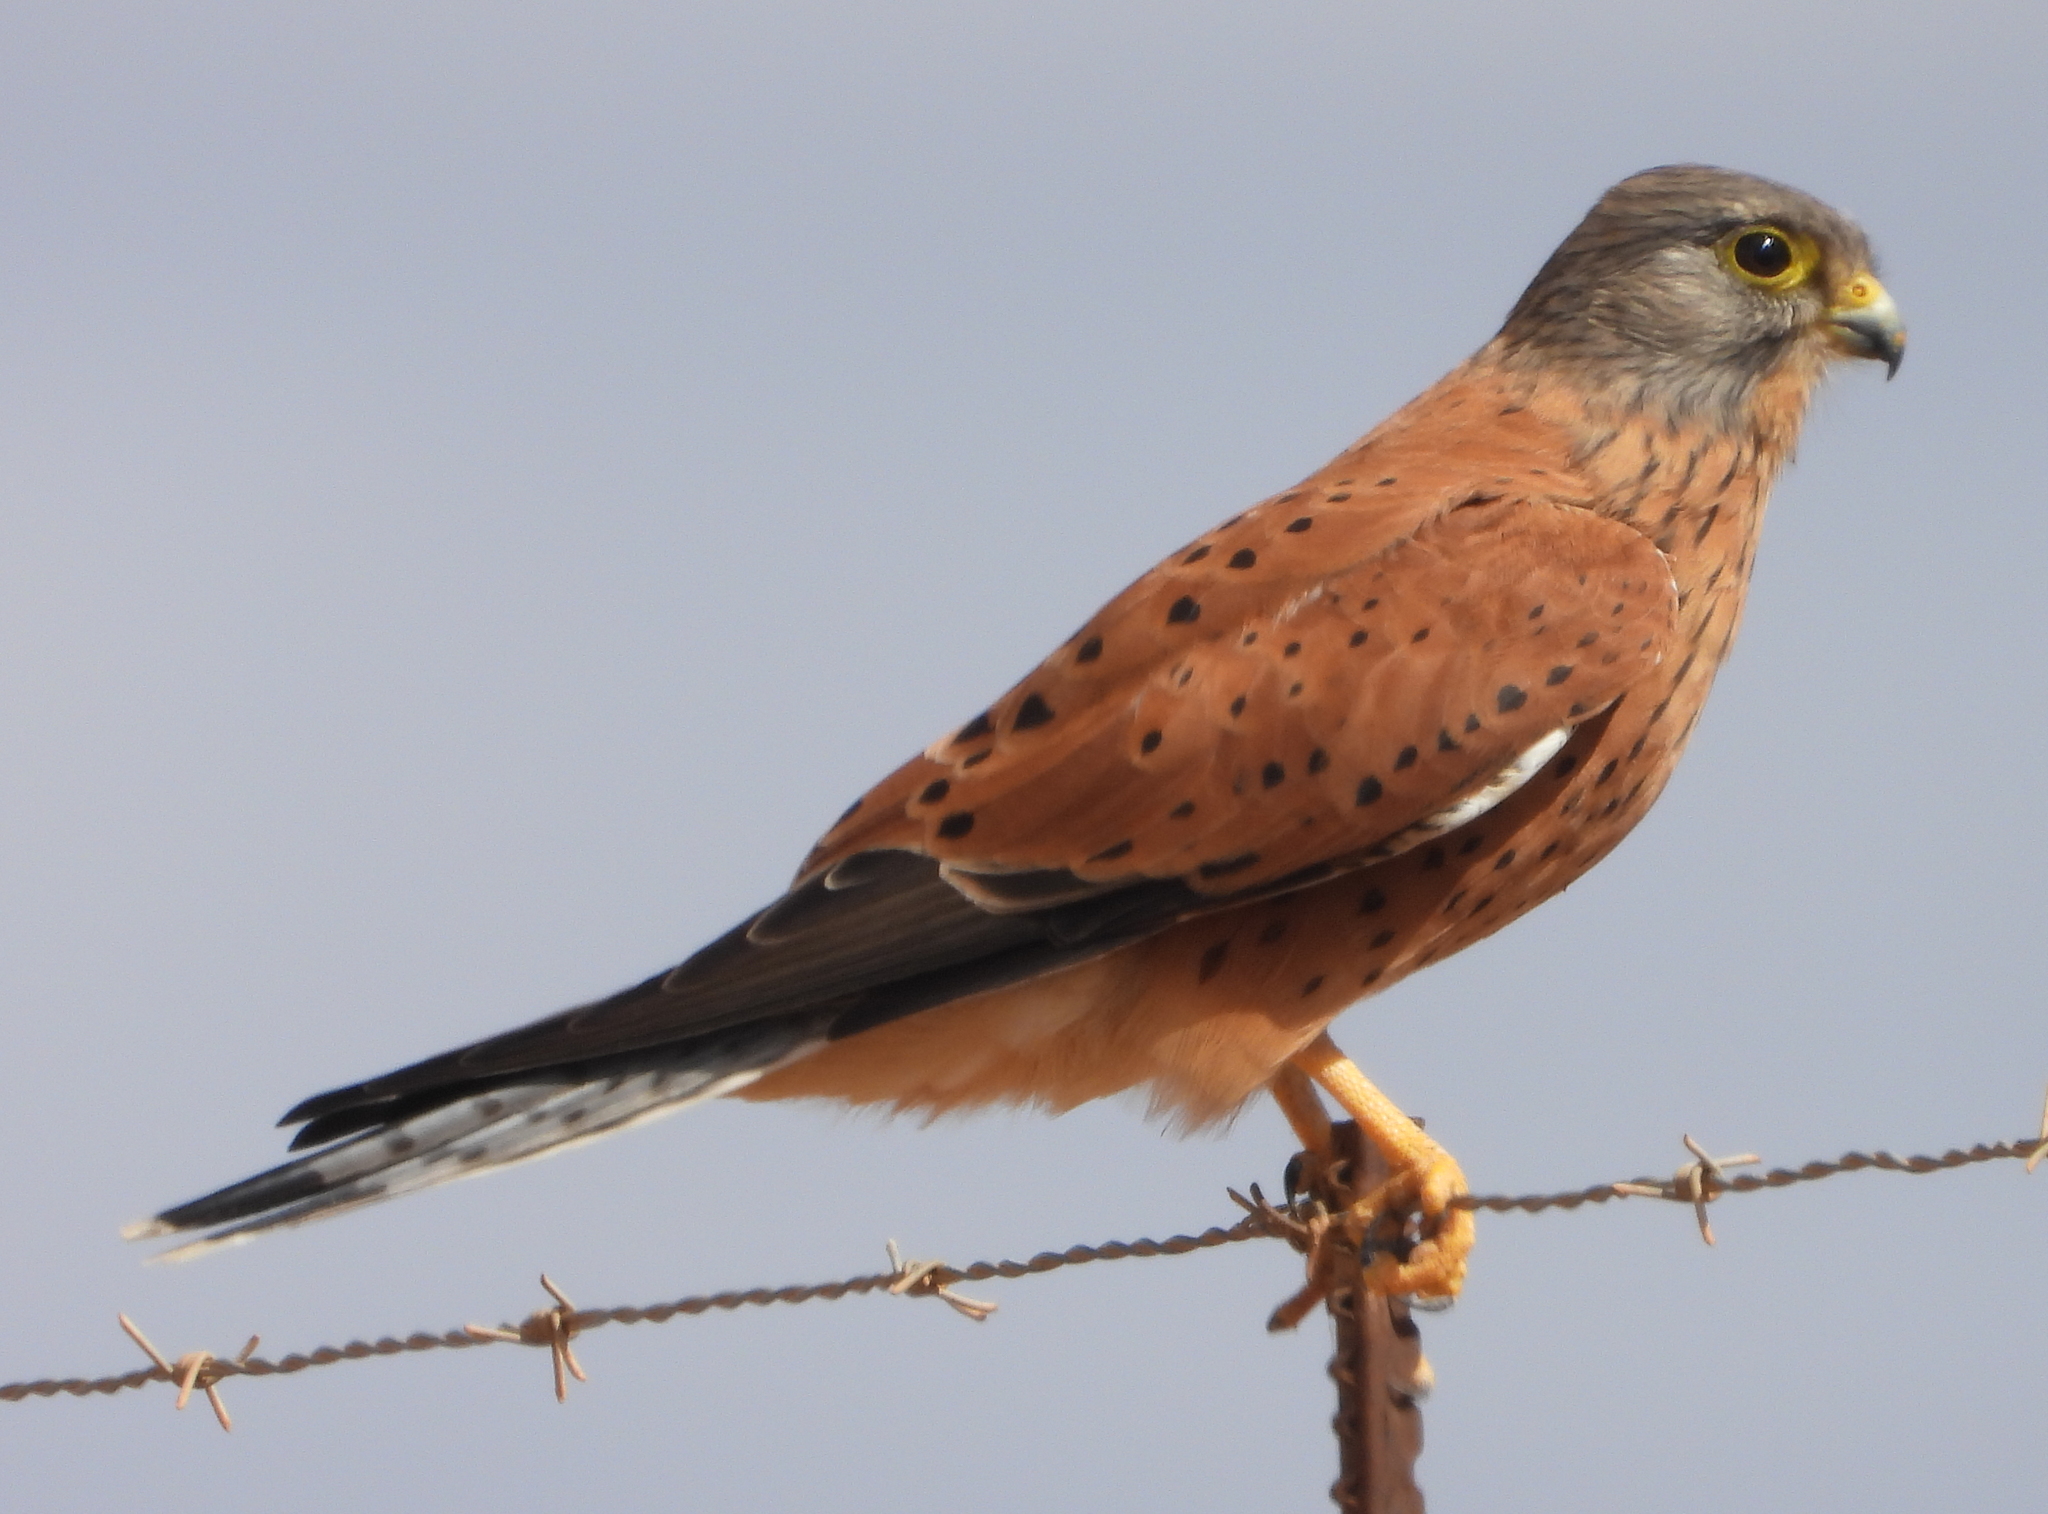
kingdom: Animalia
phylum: Chordata
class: Aves
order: Falconiformes
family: Falconidae
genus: Falco
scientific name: Falco rupicolus
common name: Rock kestrel
